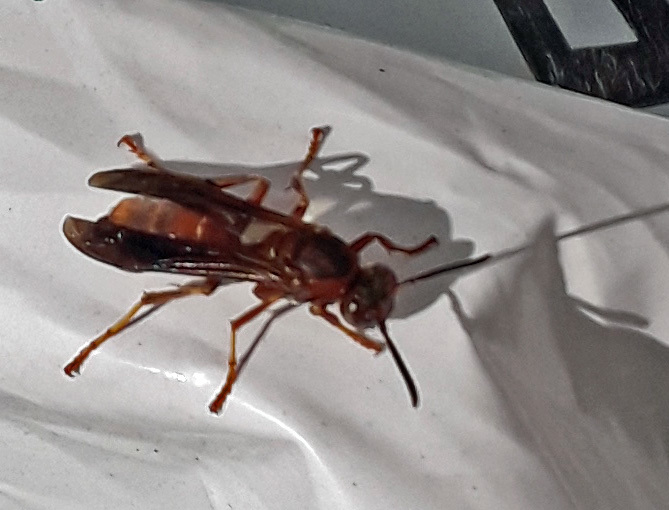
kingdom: Animalia
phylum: Arthropoda
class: Insecta
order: Hymenoptera
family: Vespidae
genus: Fuscopolistes
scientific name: Fuscopolistes
